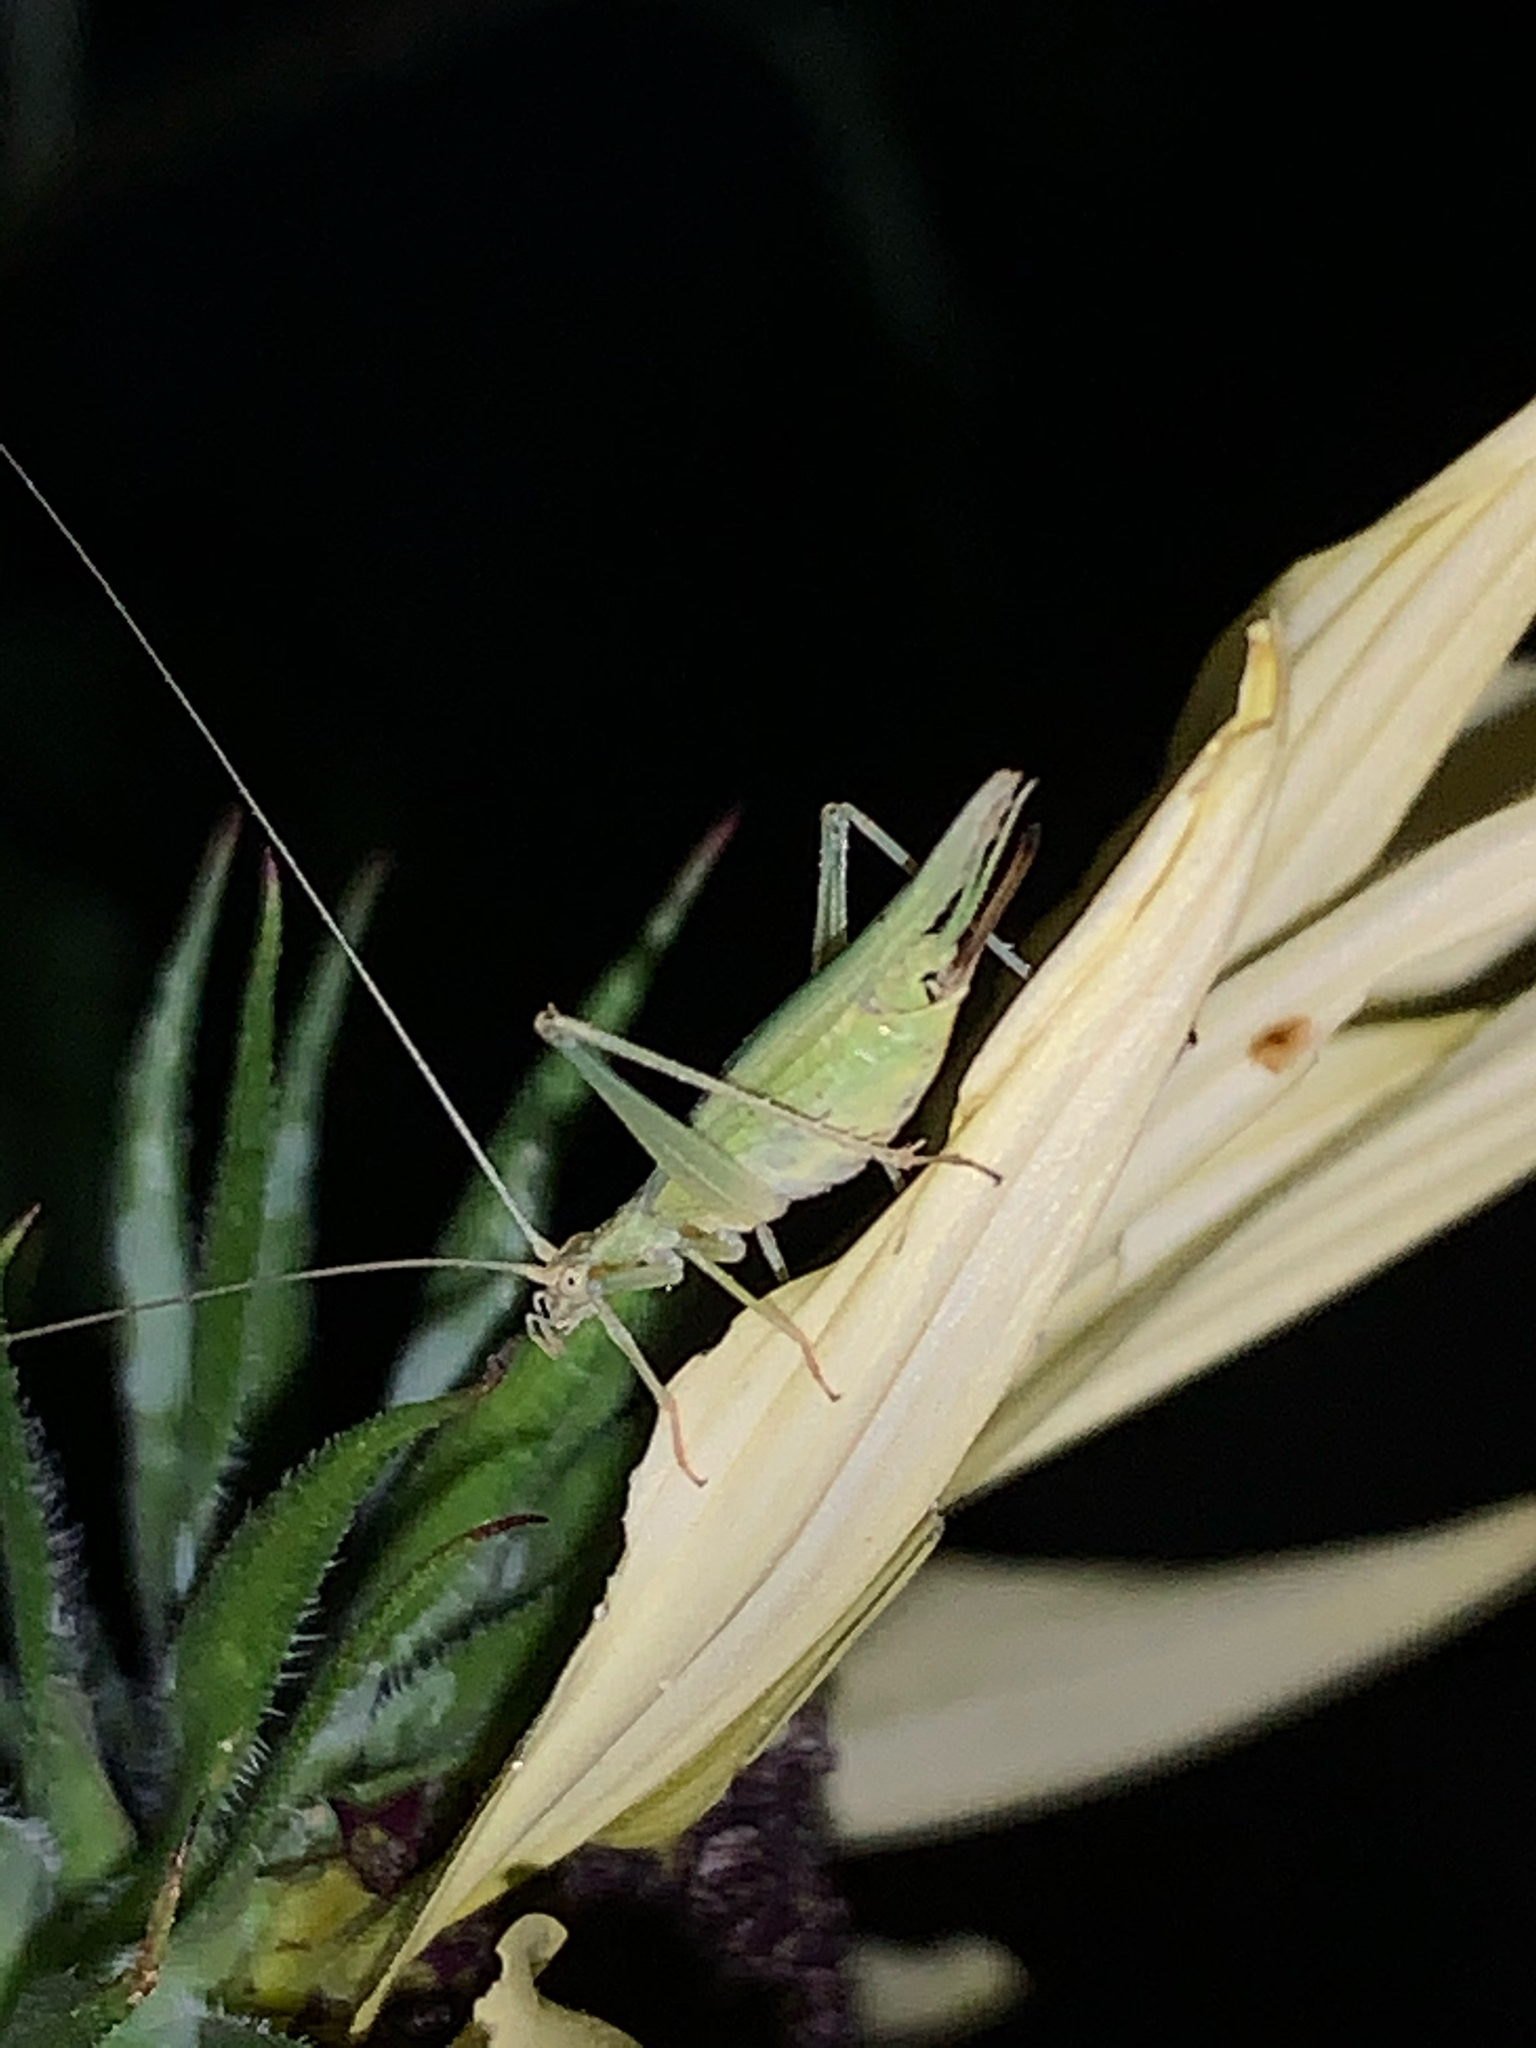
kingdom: Animalia
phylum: Arthropoda
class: Insecta
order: Orthoptera
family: Gryllidae
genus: Oecanthus
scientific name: Oecanthus
